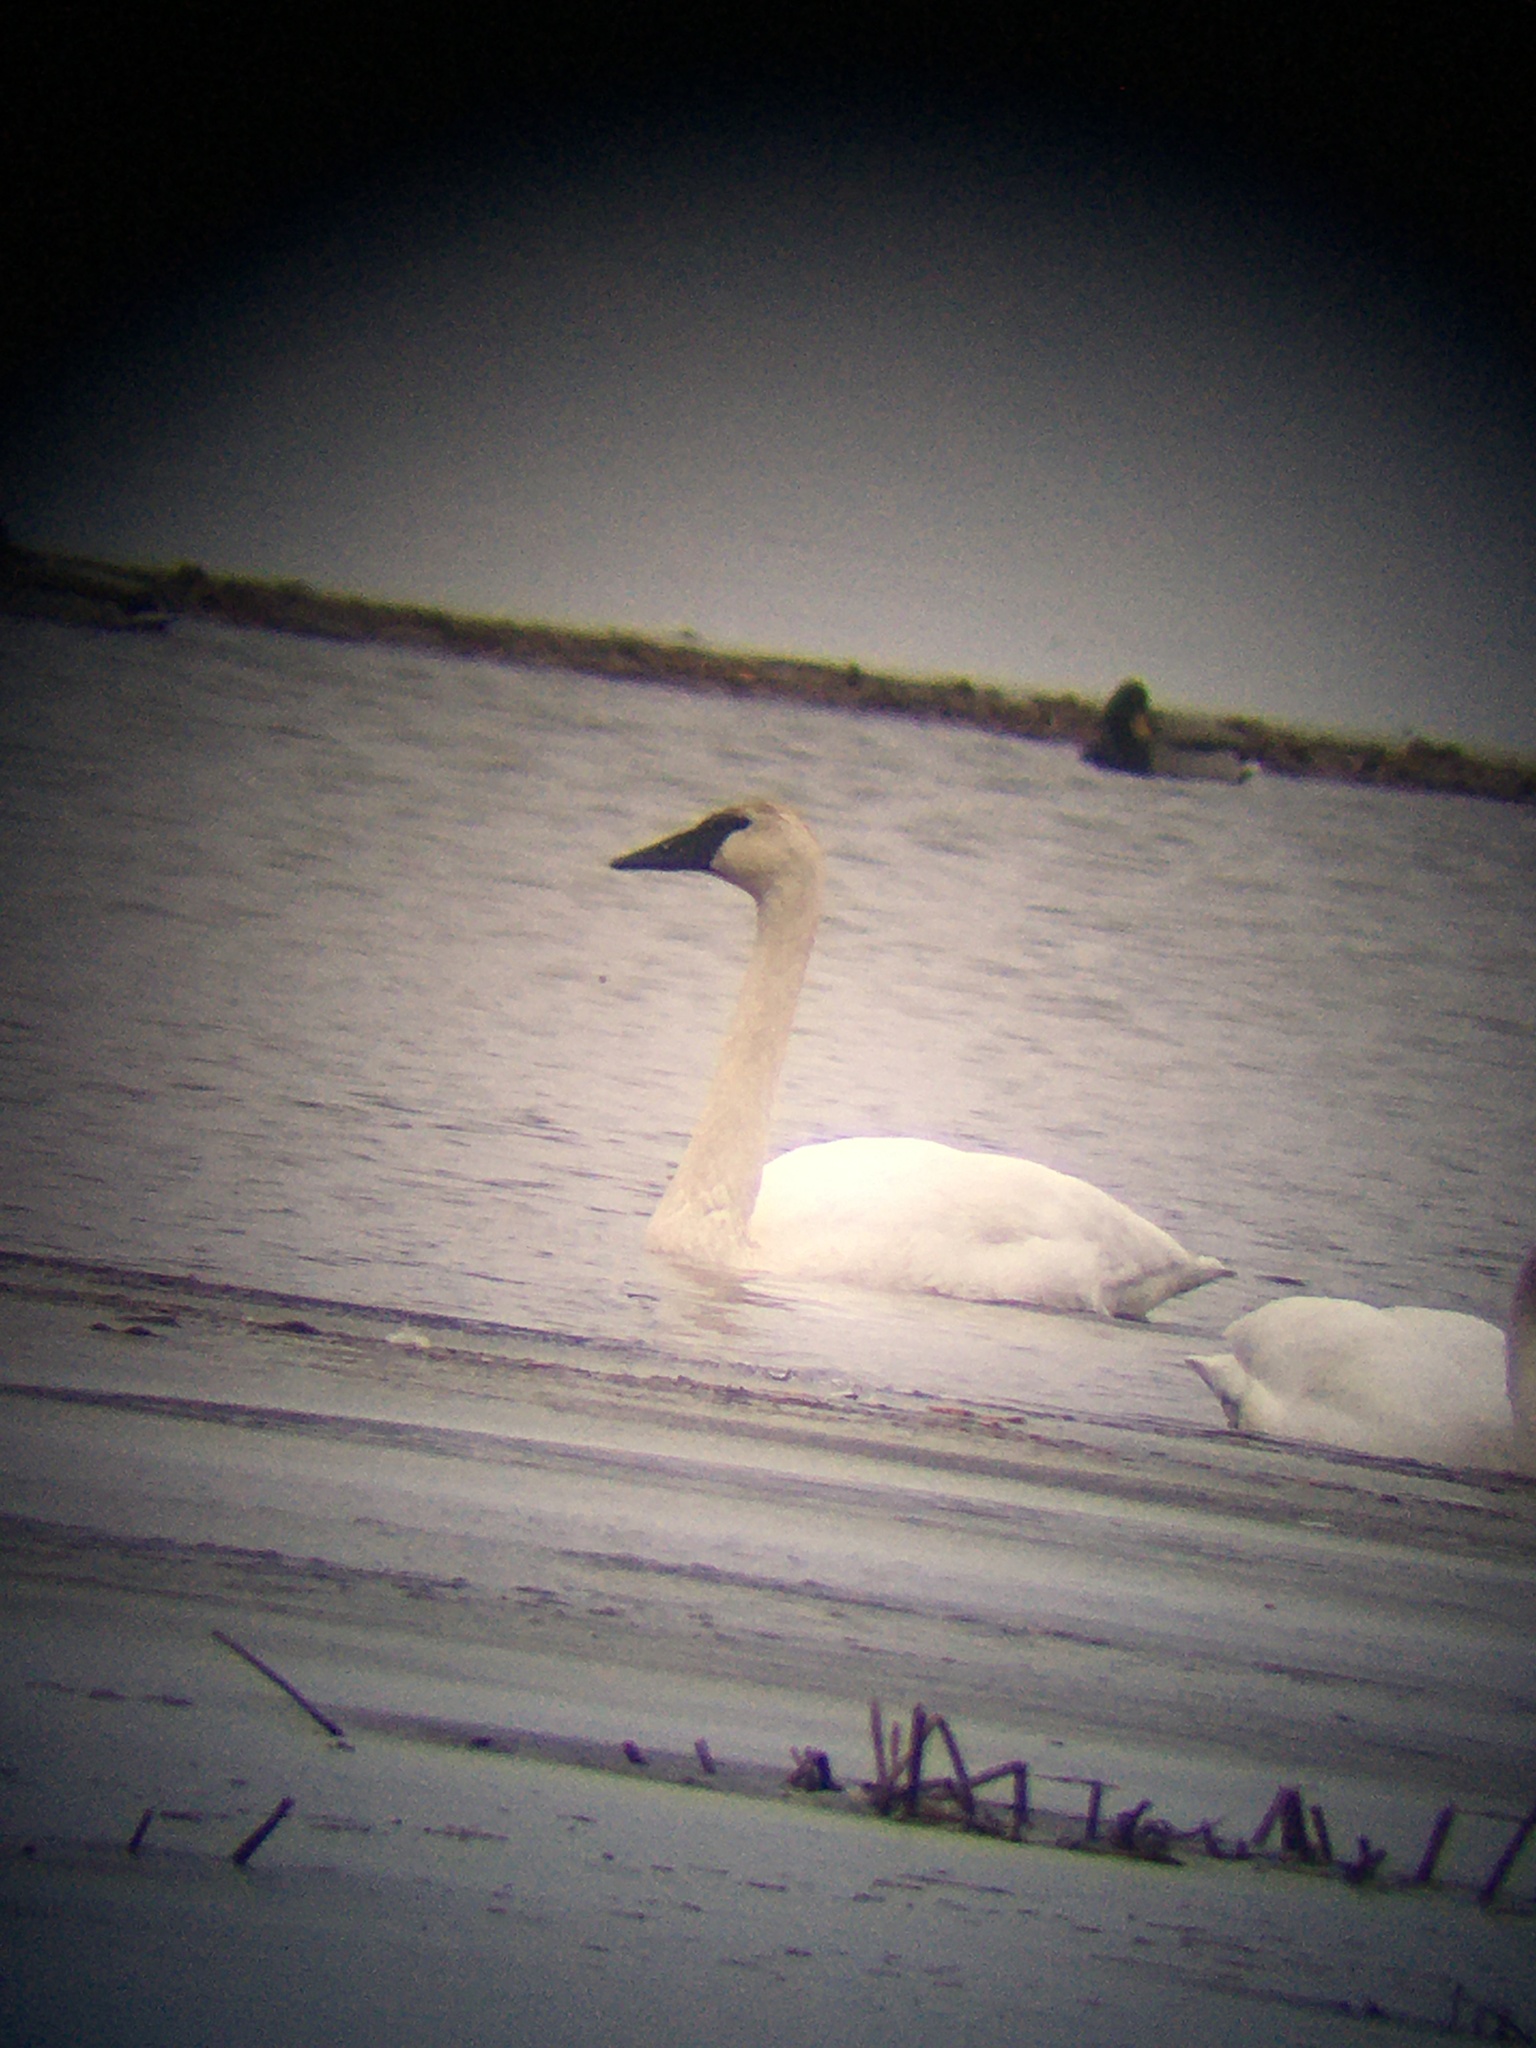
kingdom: Animalia
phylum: Chordata
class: Aves
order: Anseriformes
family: Anatidae
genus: Cygnus
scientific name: Cygnus buccinator
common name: Trumpeter swan
